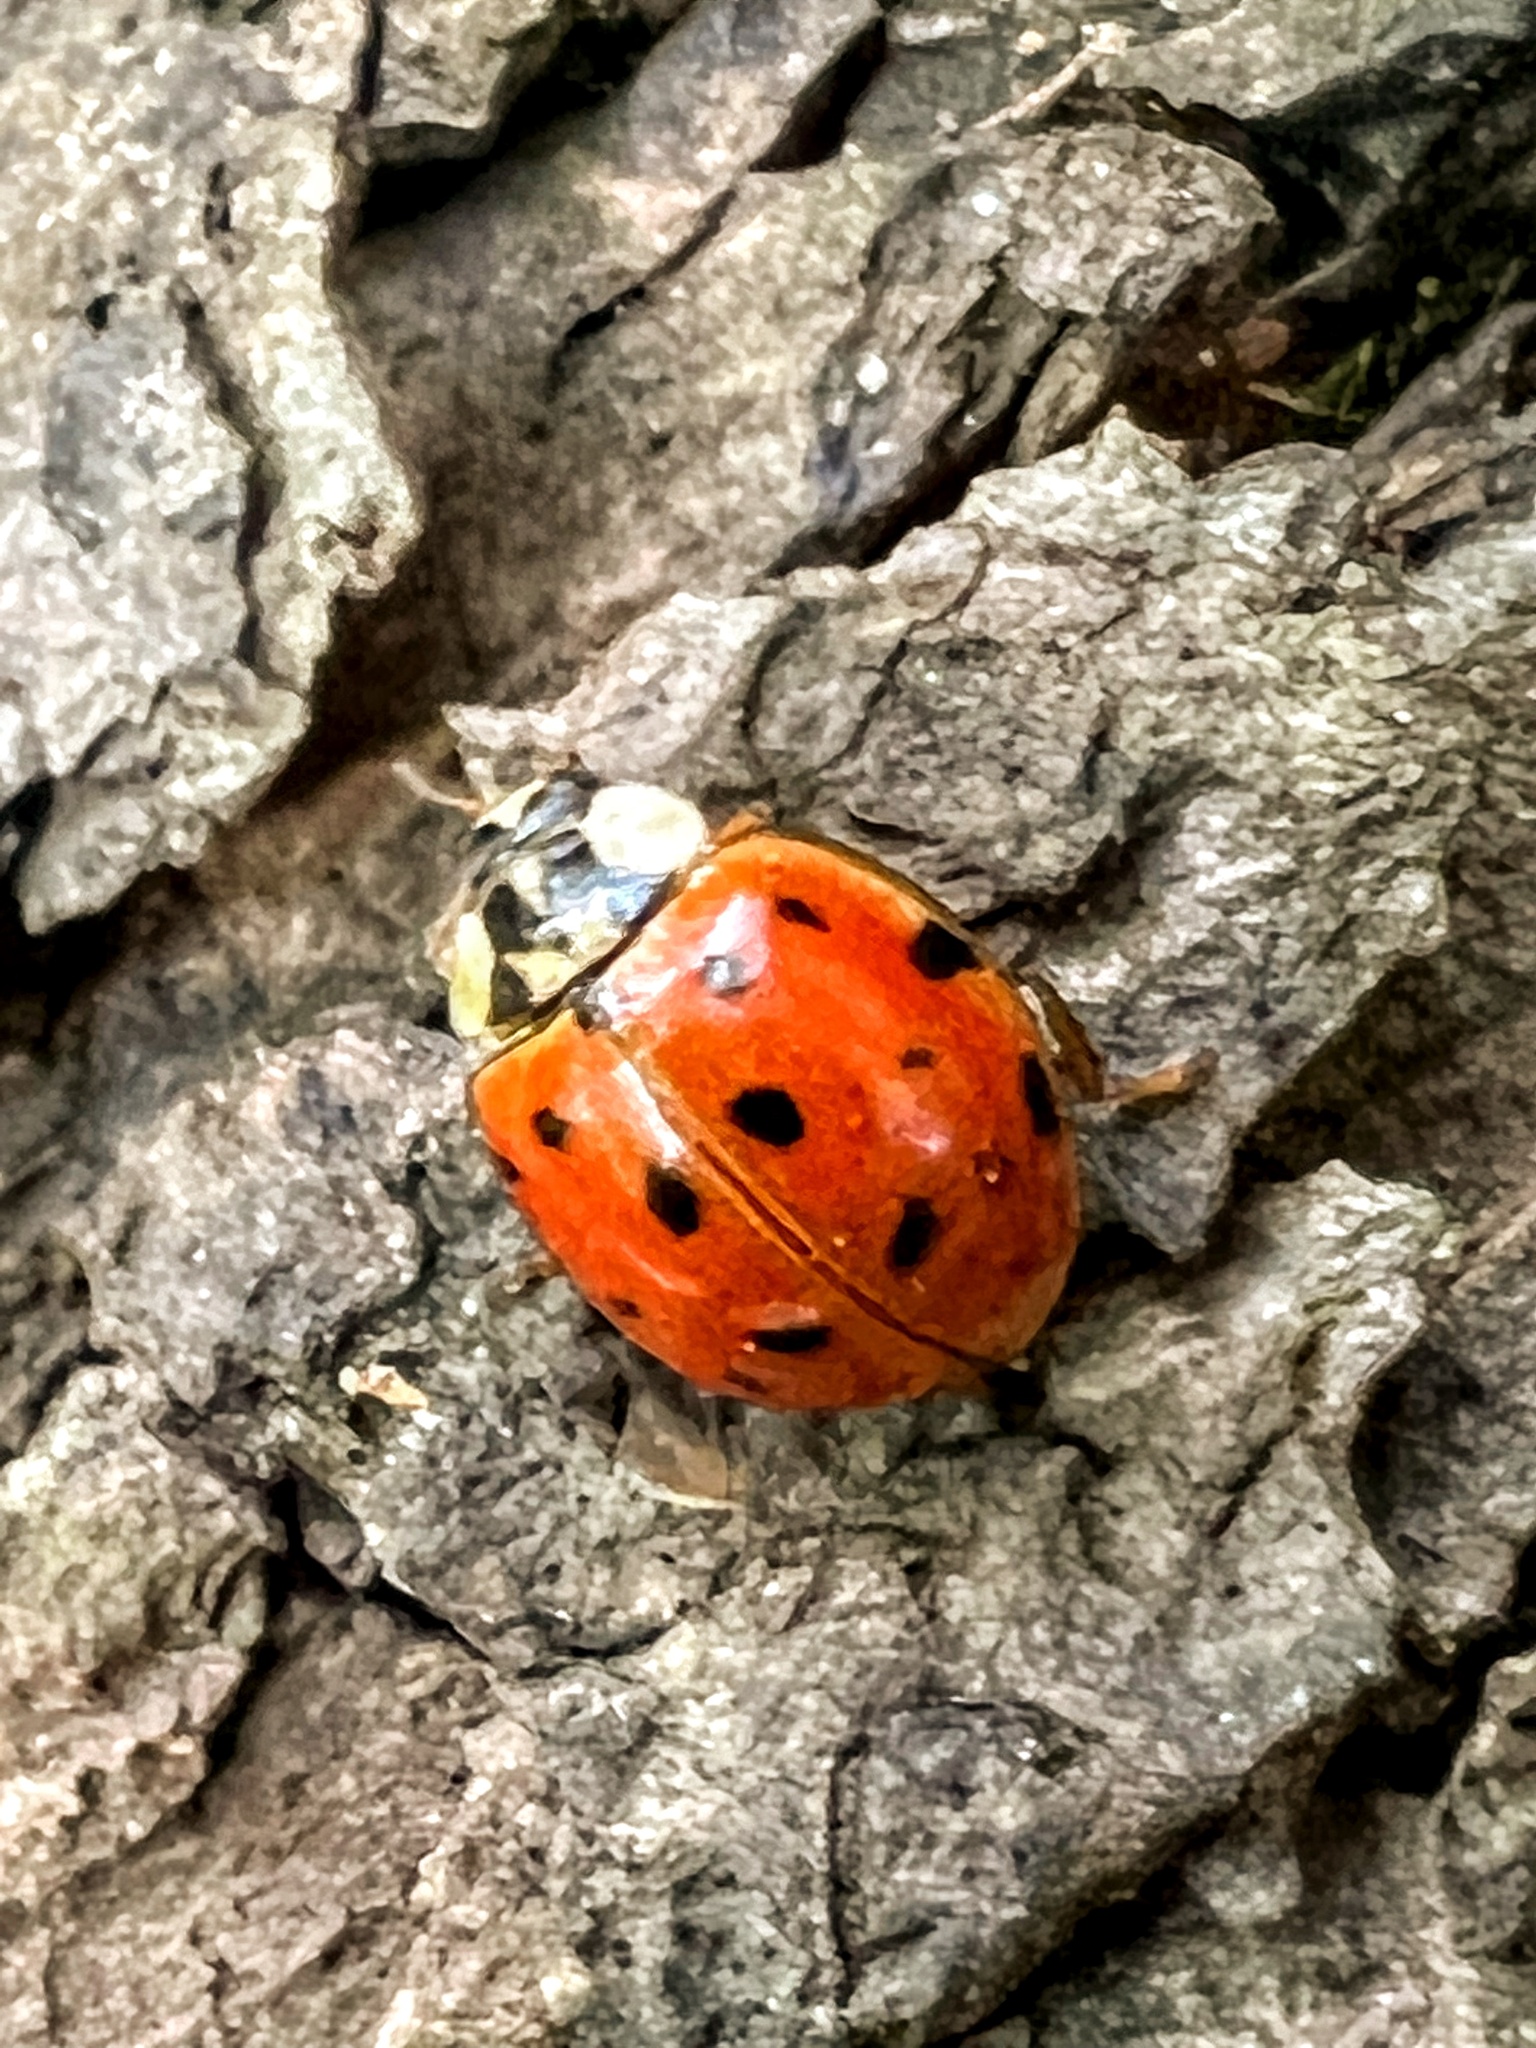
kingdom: Animalia
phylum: Arthropoda
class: Insecta
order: Coleoptera
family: Coccinellidae
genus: Harmonia
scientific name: Harmonia axyridis
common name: Harlequin ladybird
